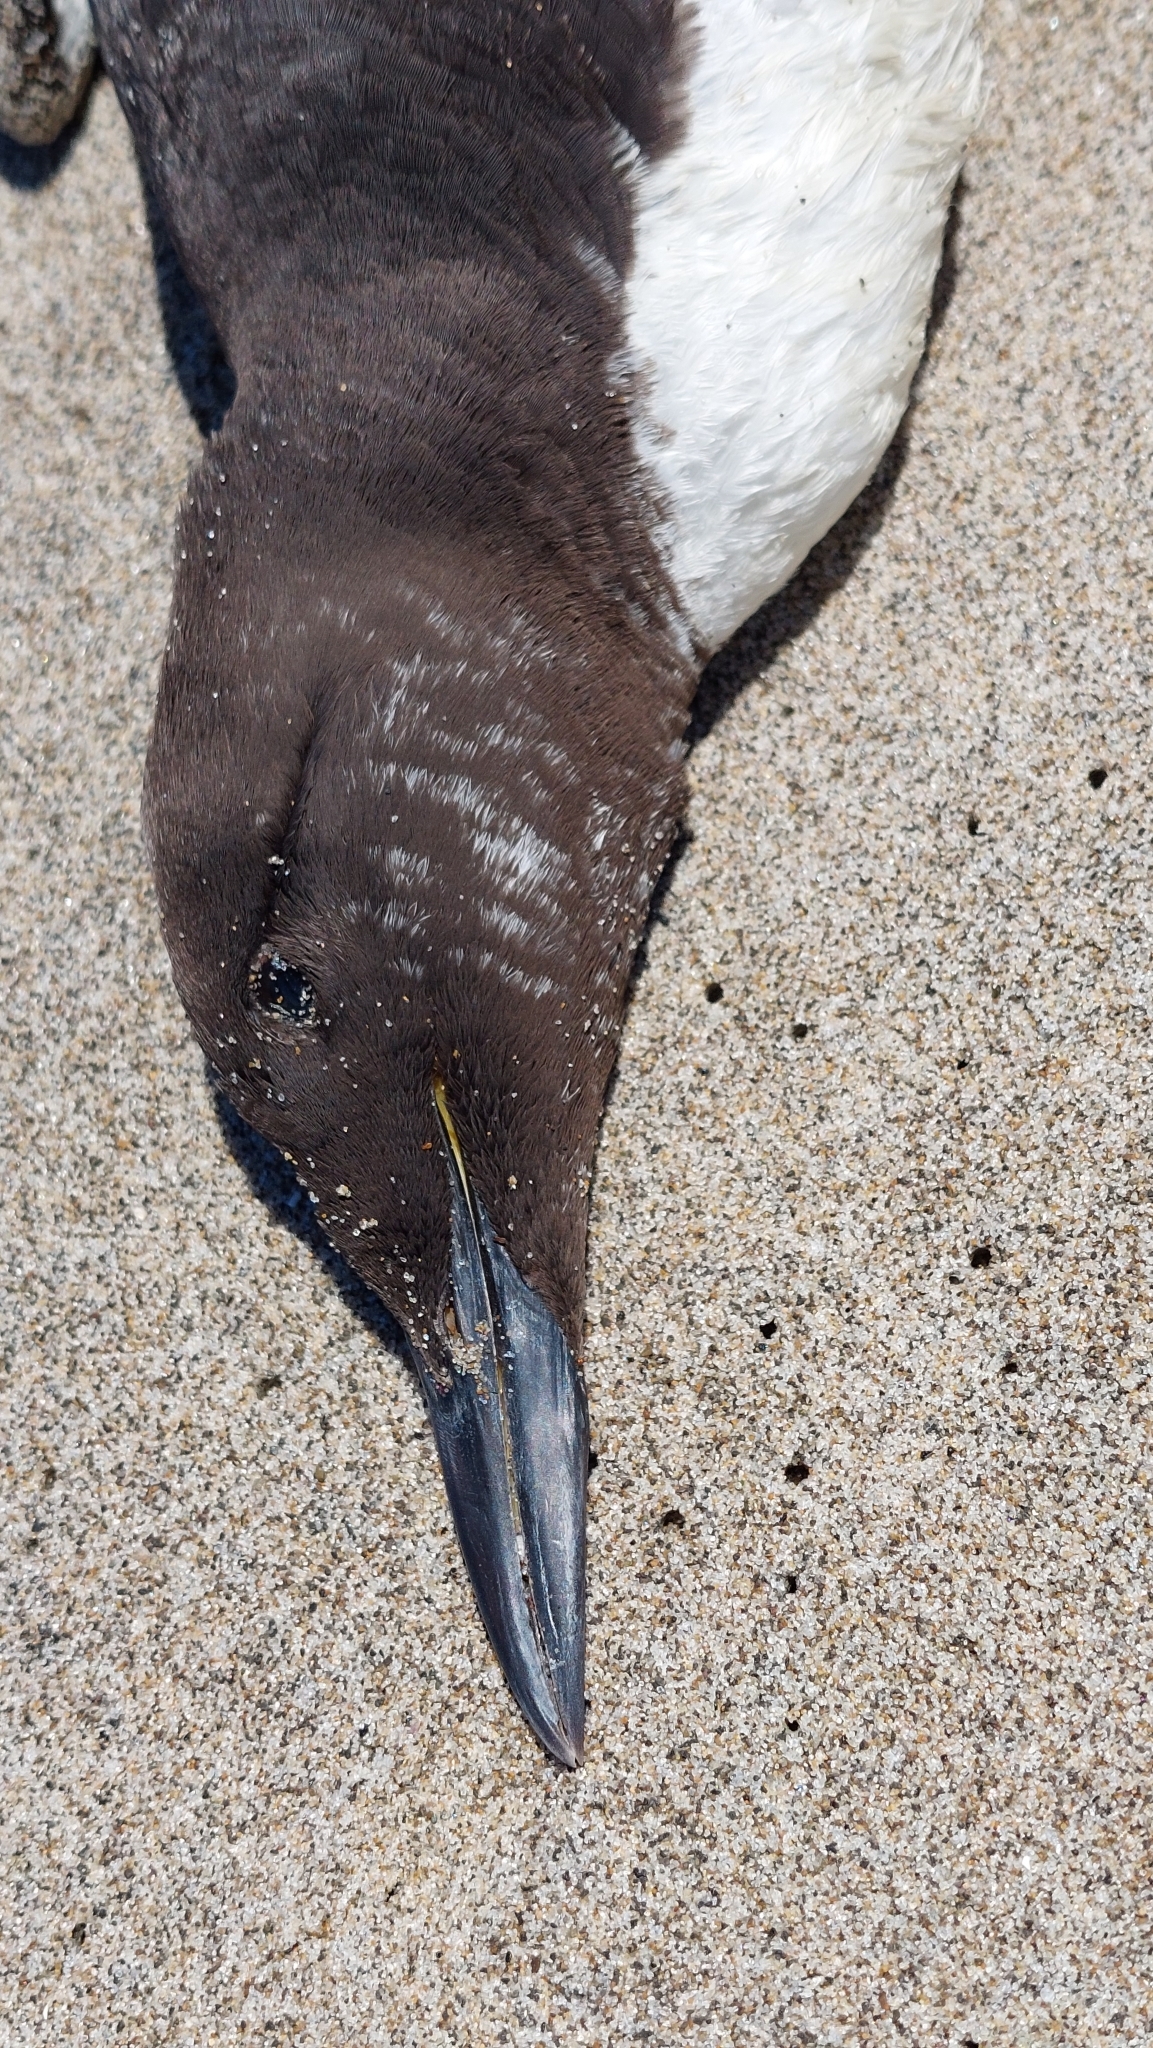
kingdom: Animalia
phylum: Chordata
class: Aves
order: Charadriiformes
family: Alcidae
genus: Uria
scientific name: Uria aalge
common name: Common murre
